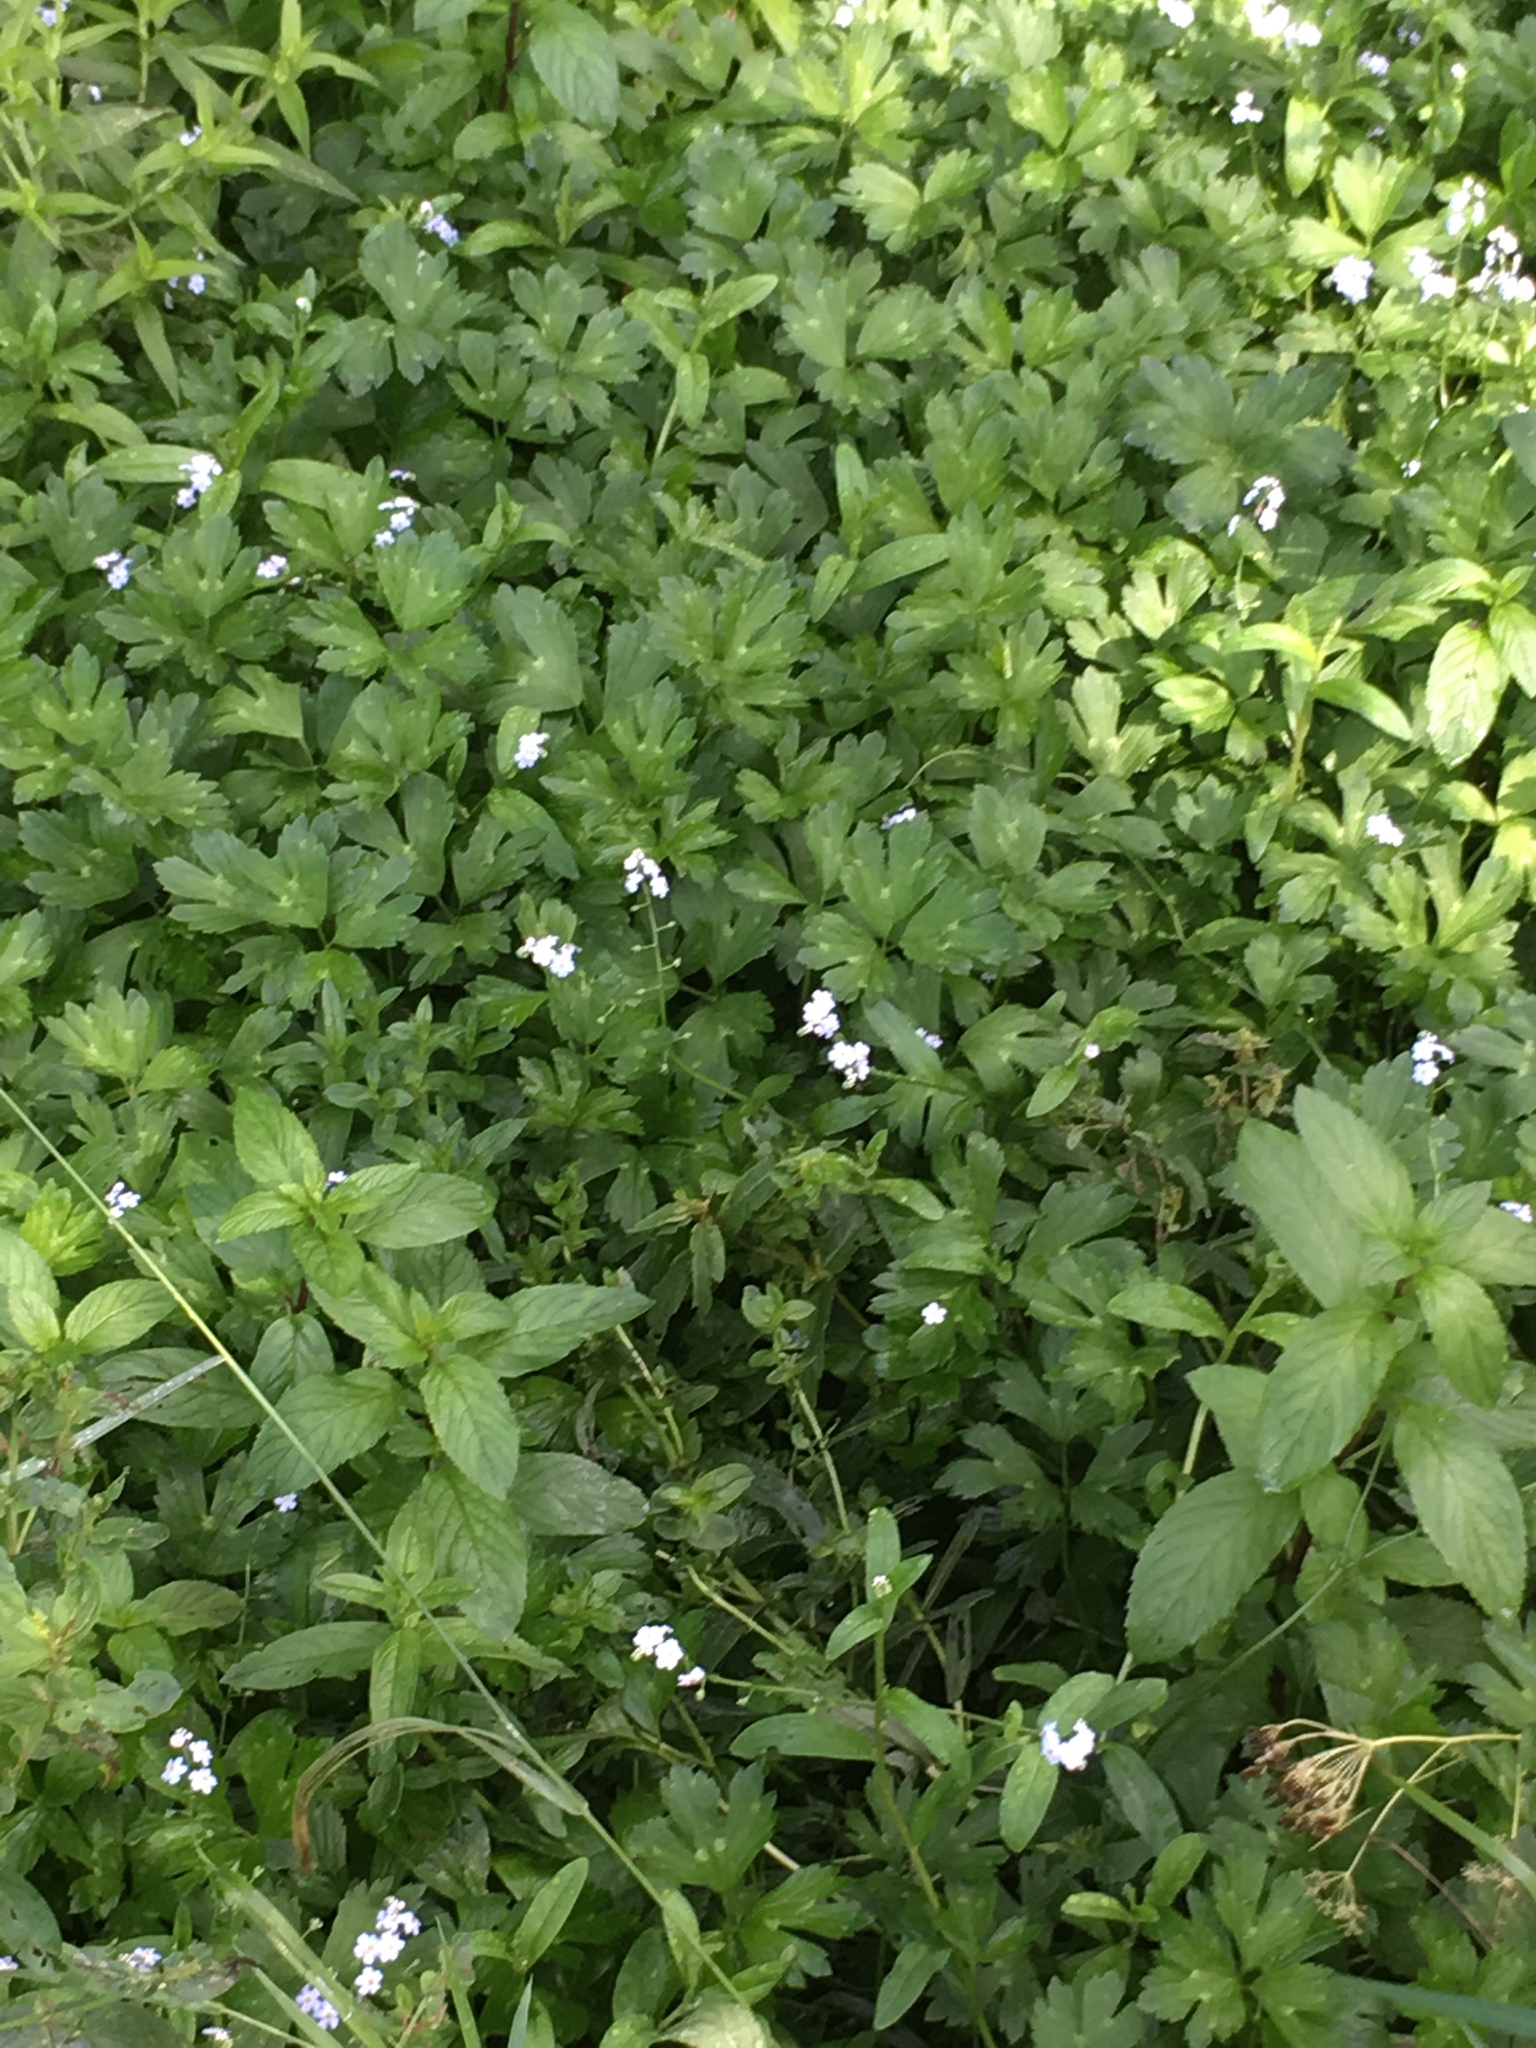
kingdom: Plantae
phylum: Tracheophyta
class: Magnoliopsida
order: Ranunculales
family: Ranunculaceae
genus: Ranunculus
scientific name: Ranunculus repens
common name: Creeping buttercup
